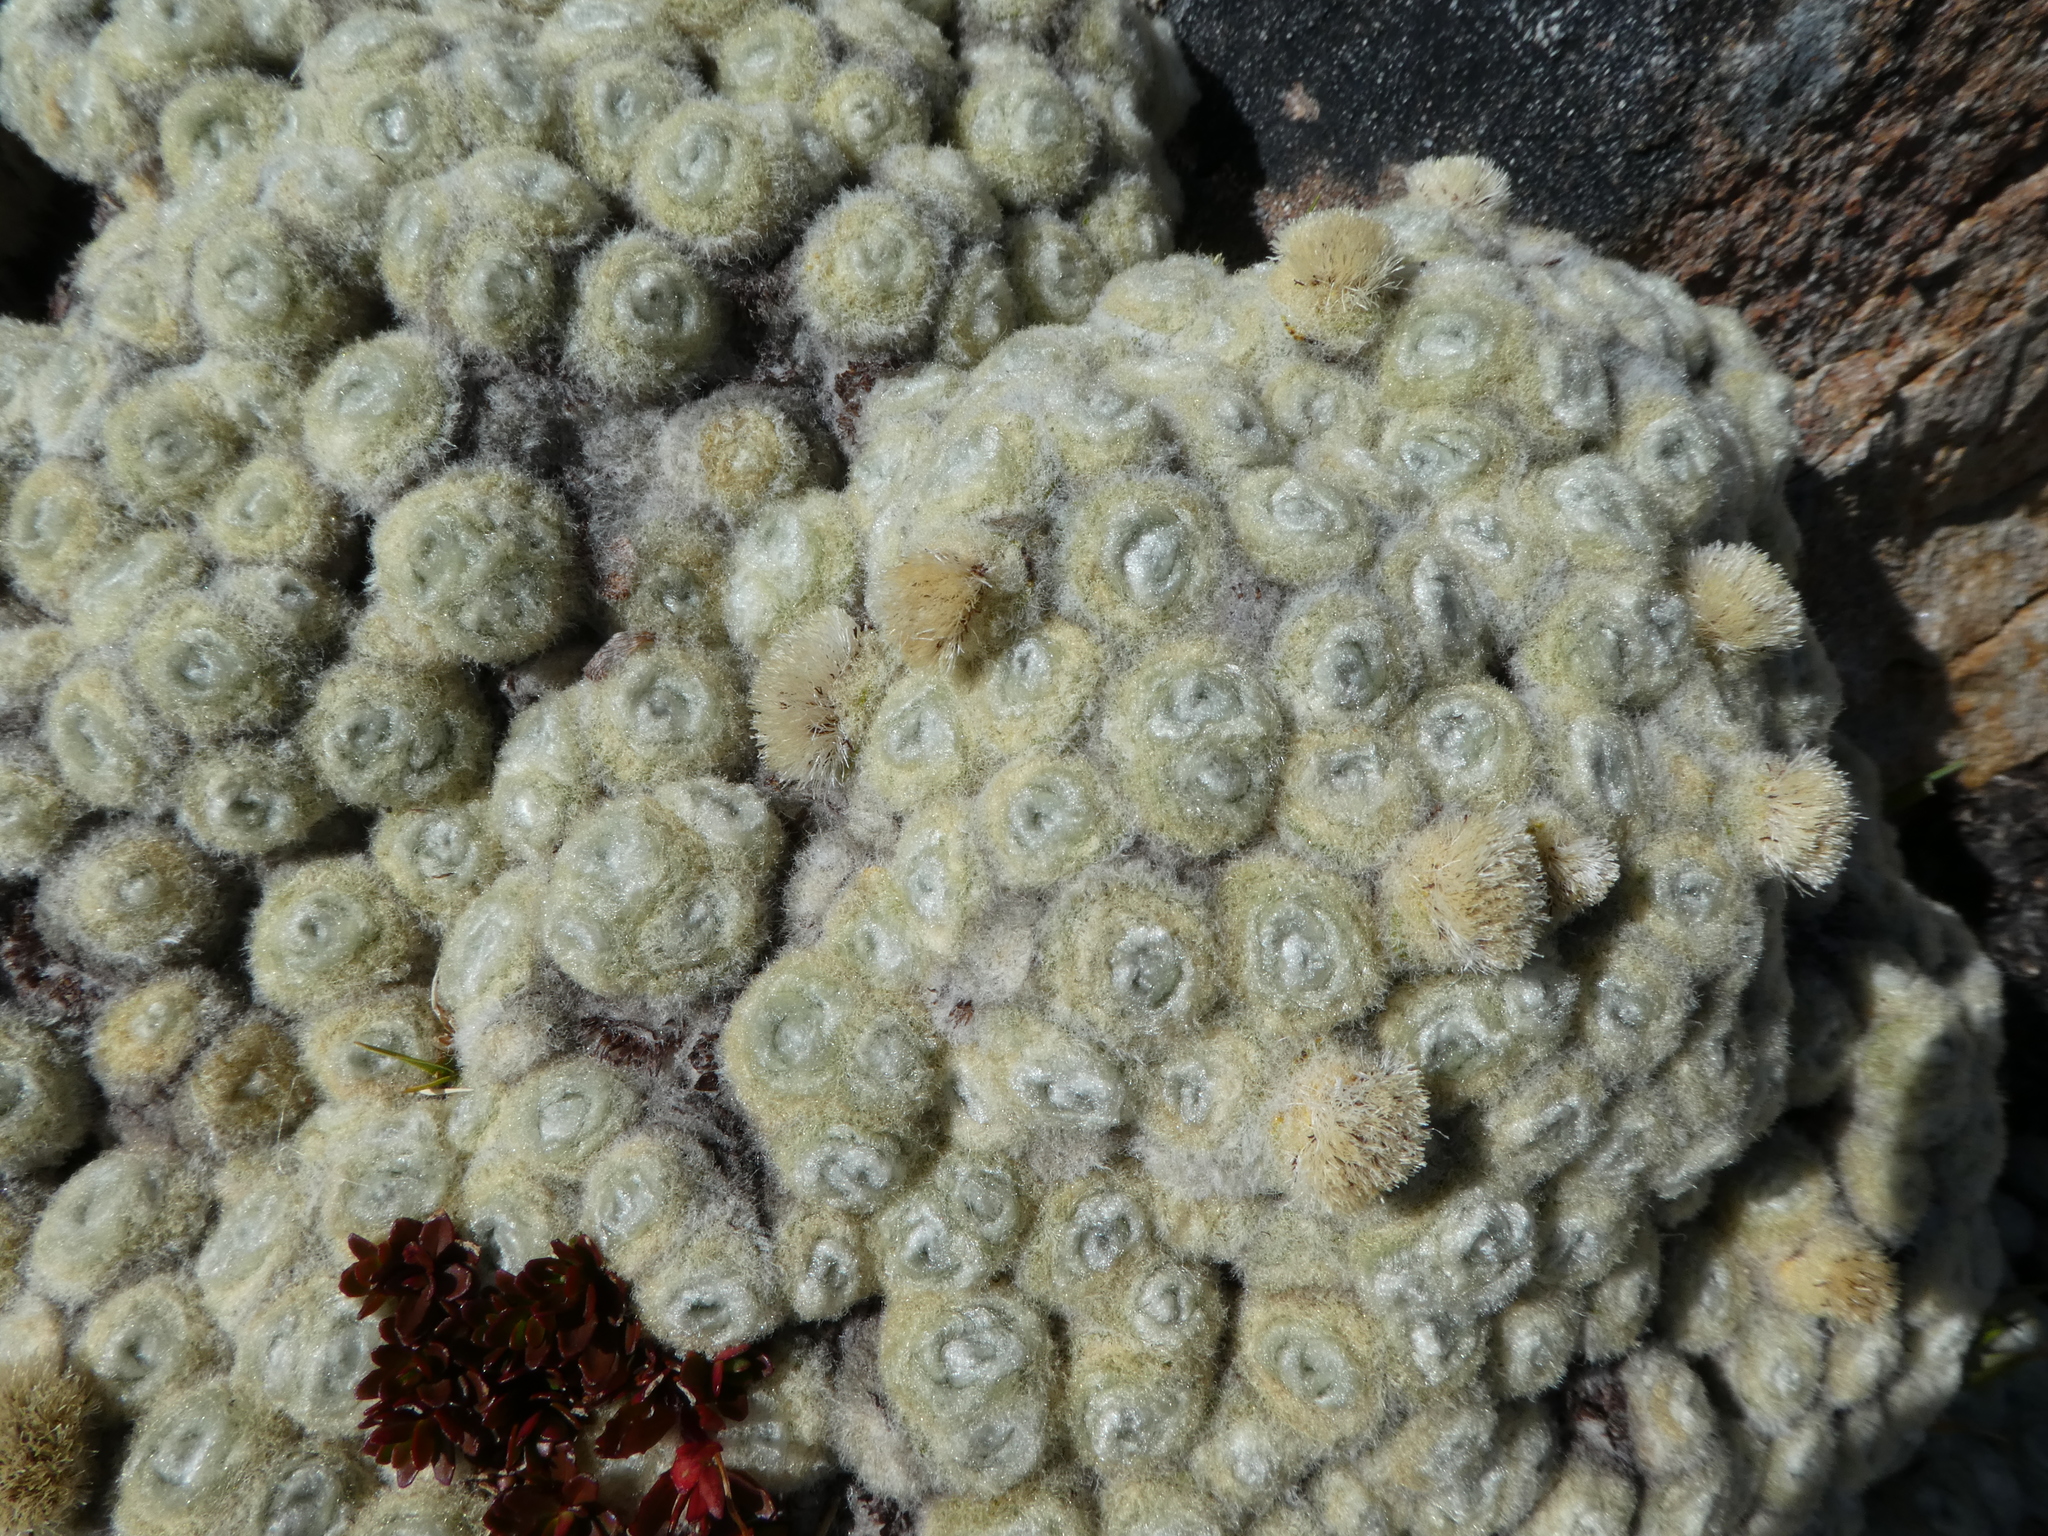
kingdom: Plantae
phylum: Tracheophyta
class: Magnoliopsida
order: Asterales
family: Asteraceae
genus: Haastia
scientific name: Haastia pulvinaris
